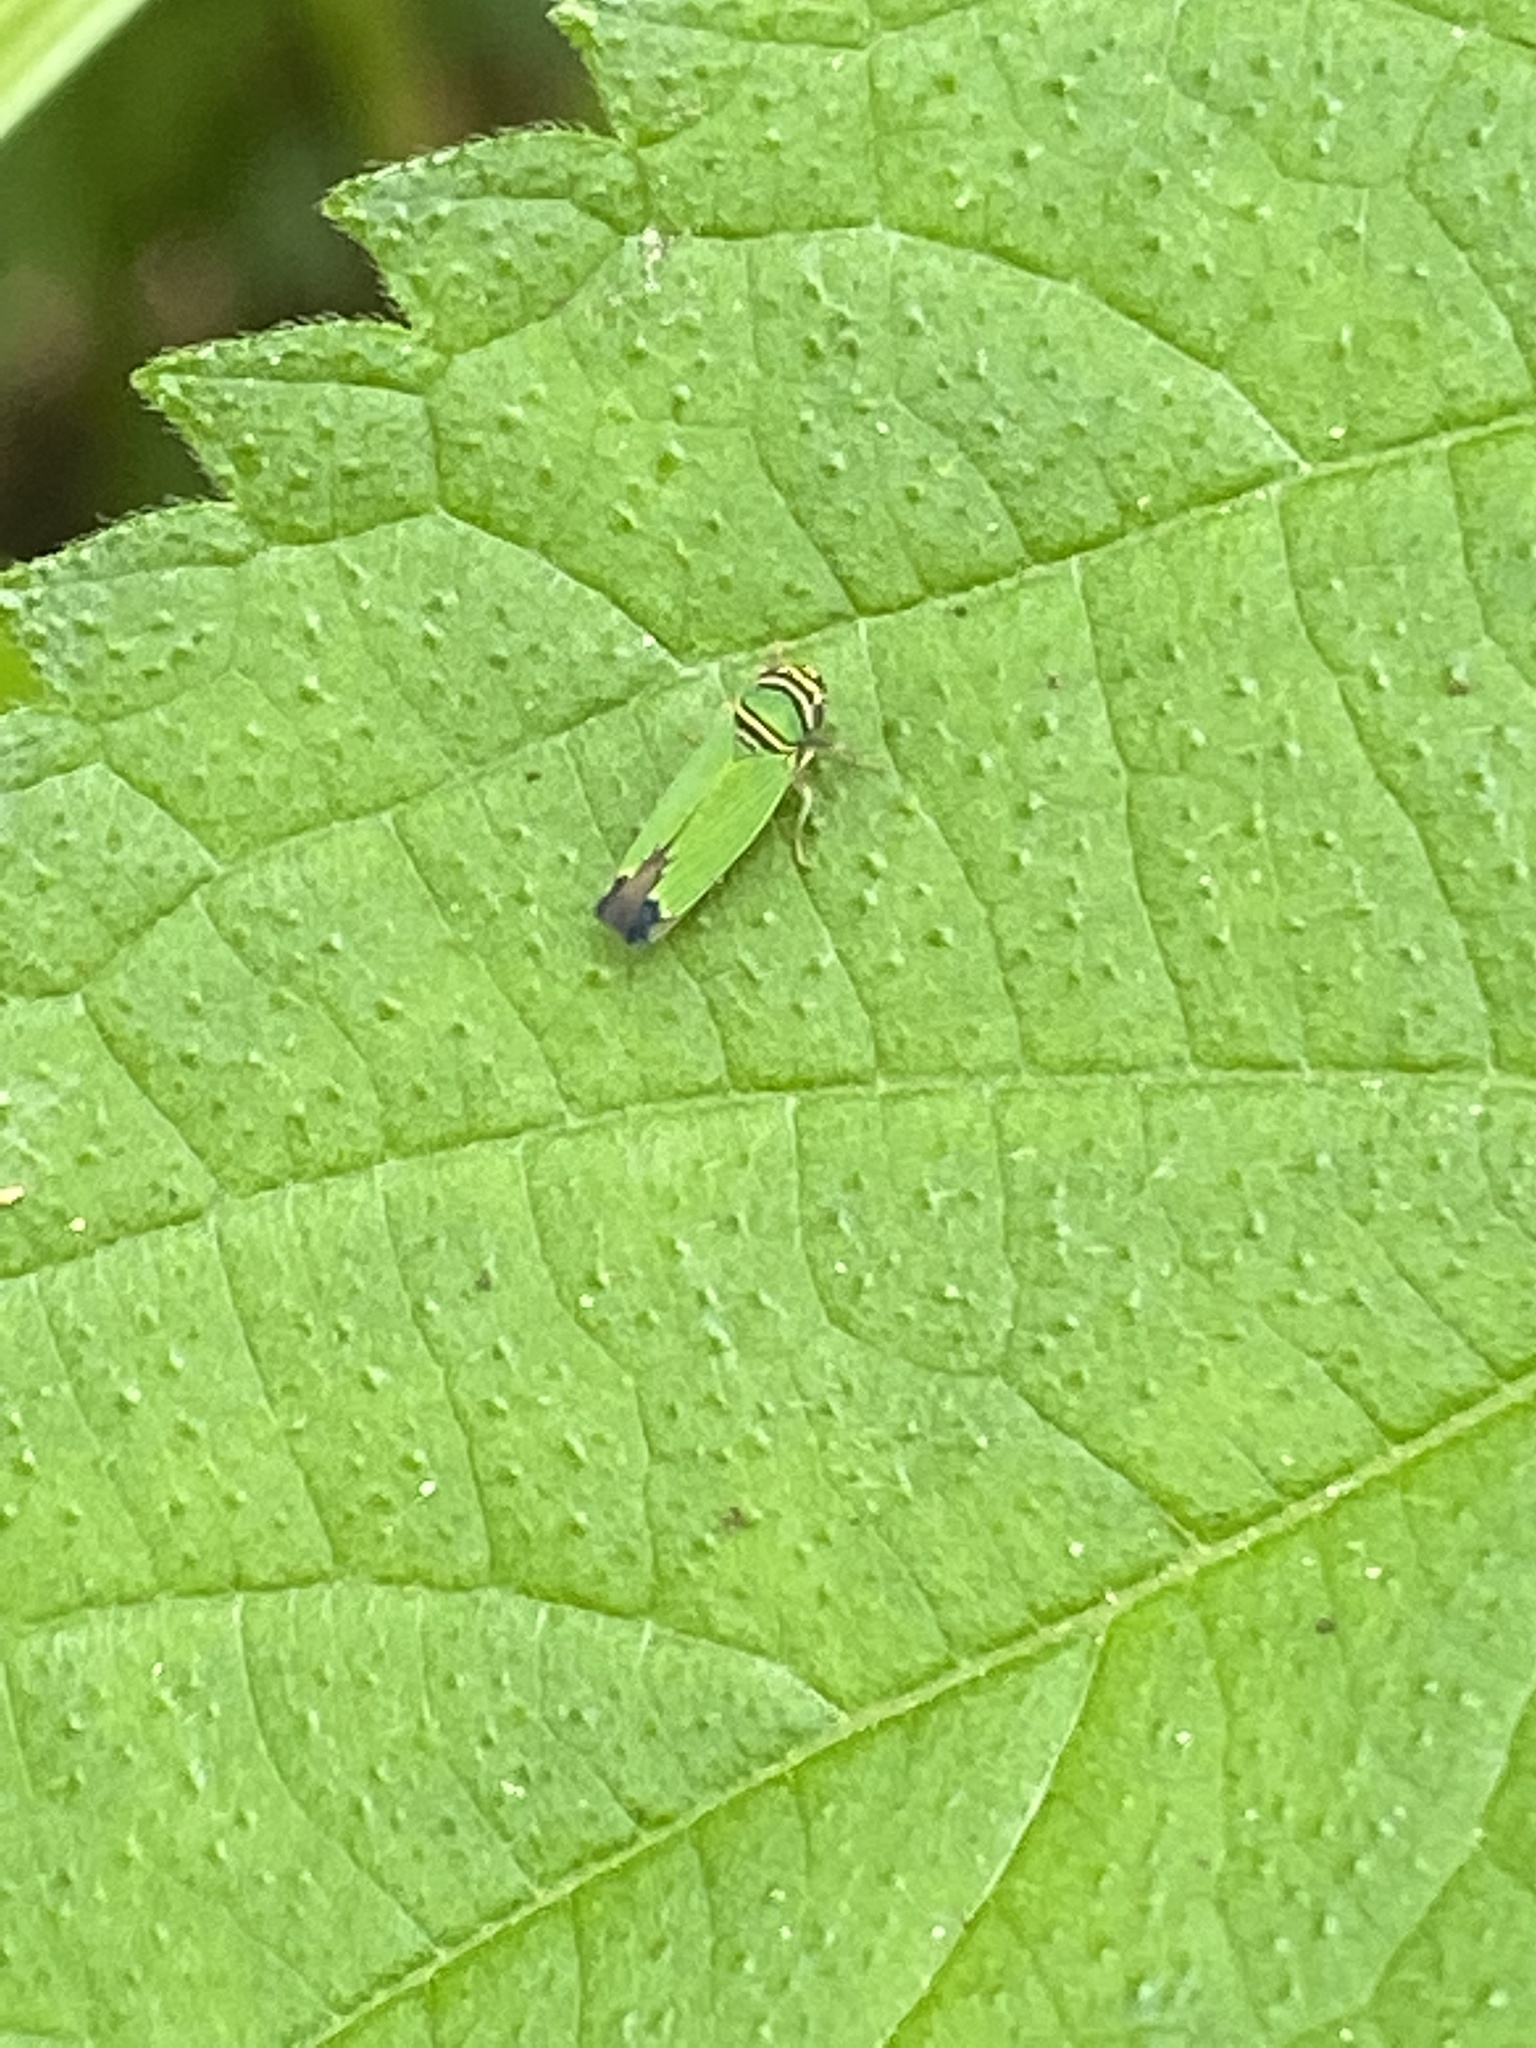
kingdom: Animalia
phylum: Arthropoda
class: Insecta
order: Hemiptera
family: Cicadellidae
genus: Tylozygus
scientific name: Tylozygus geometricus
